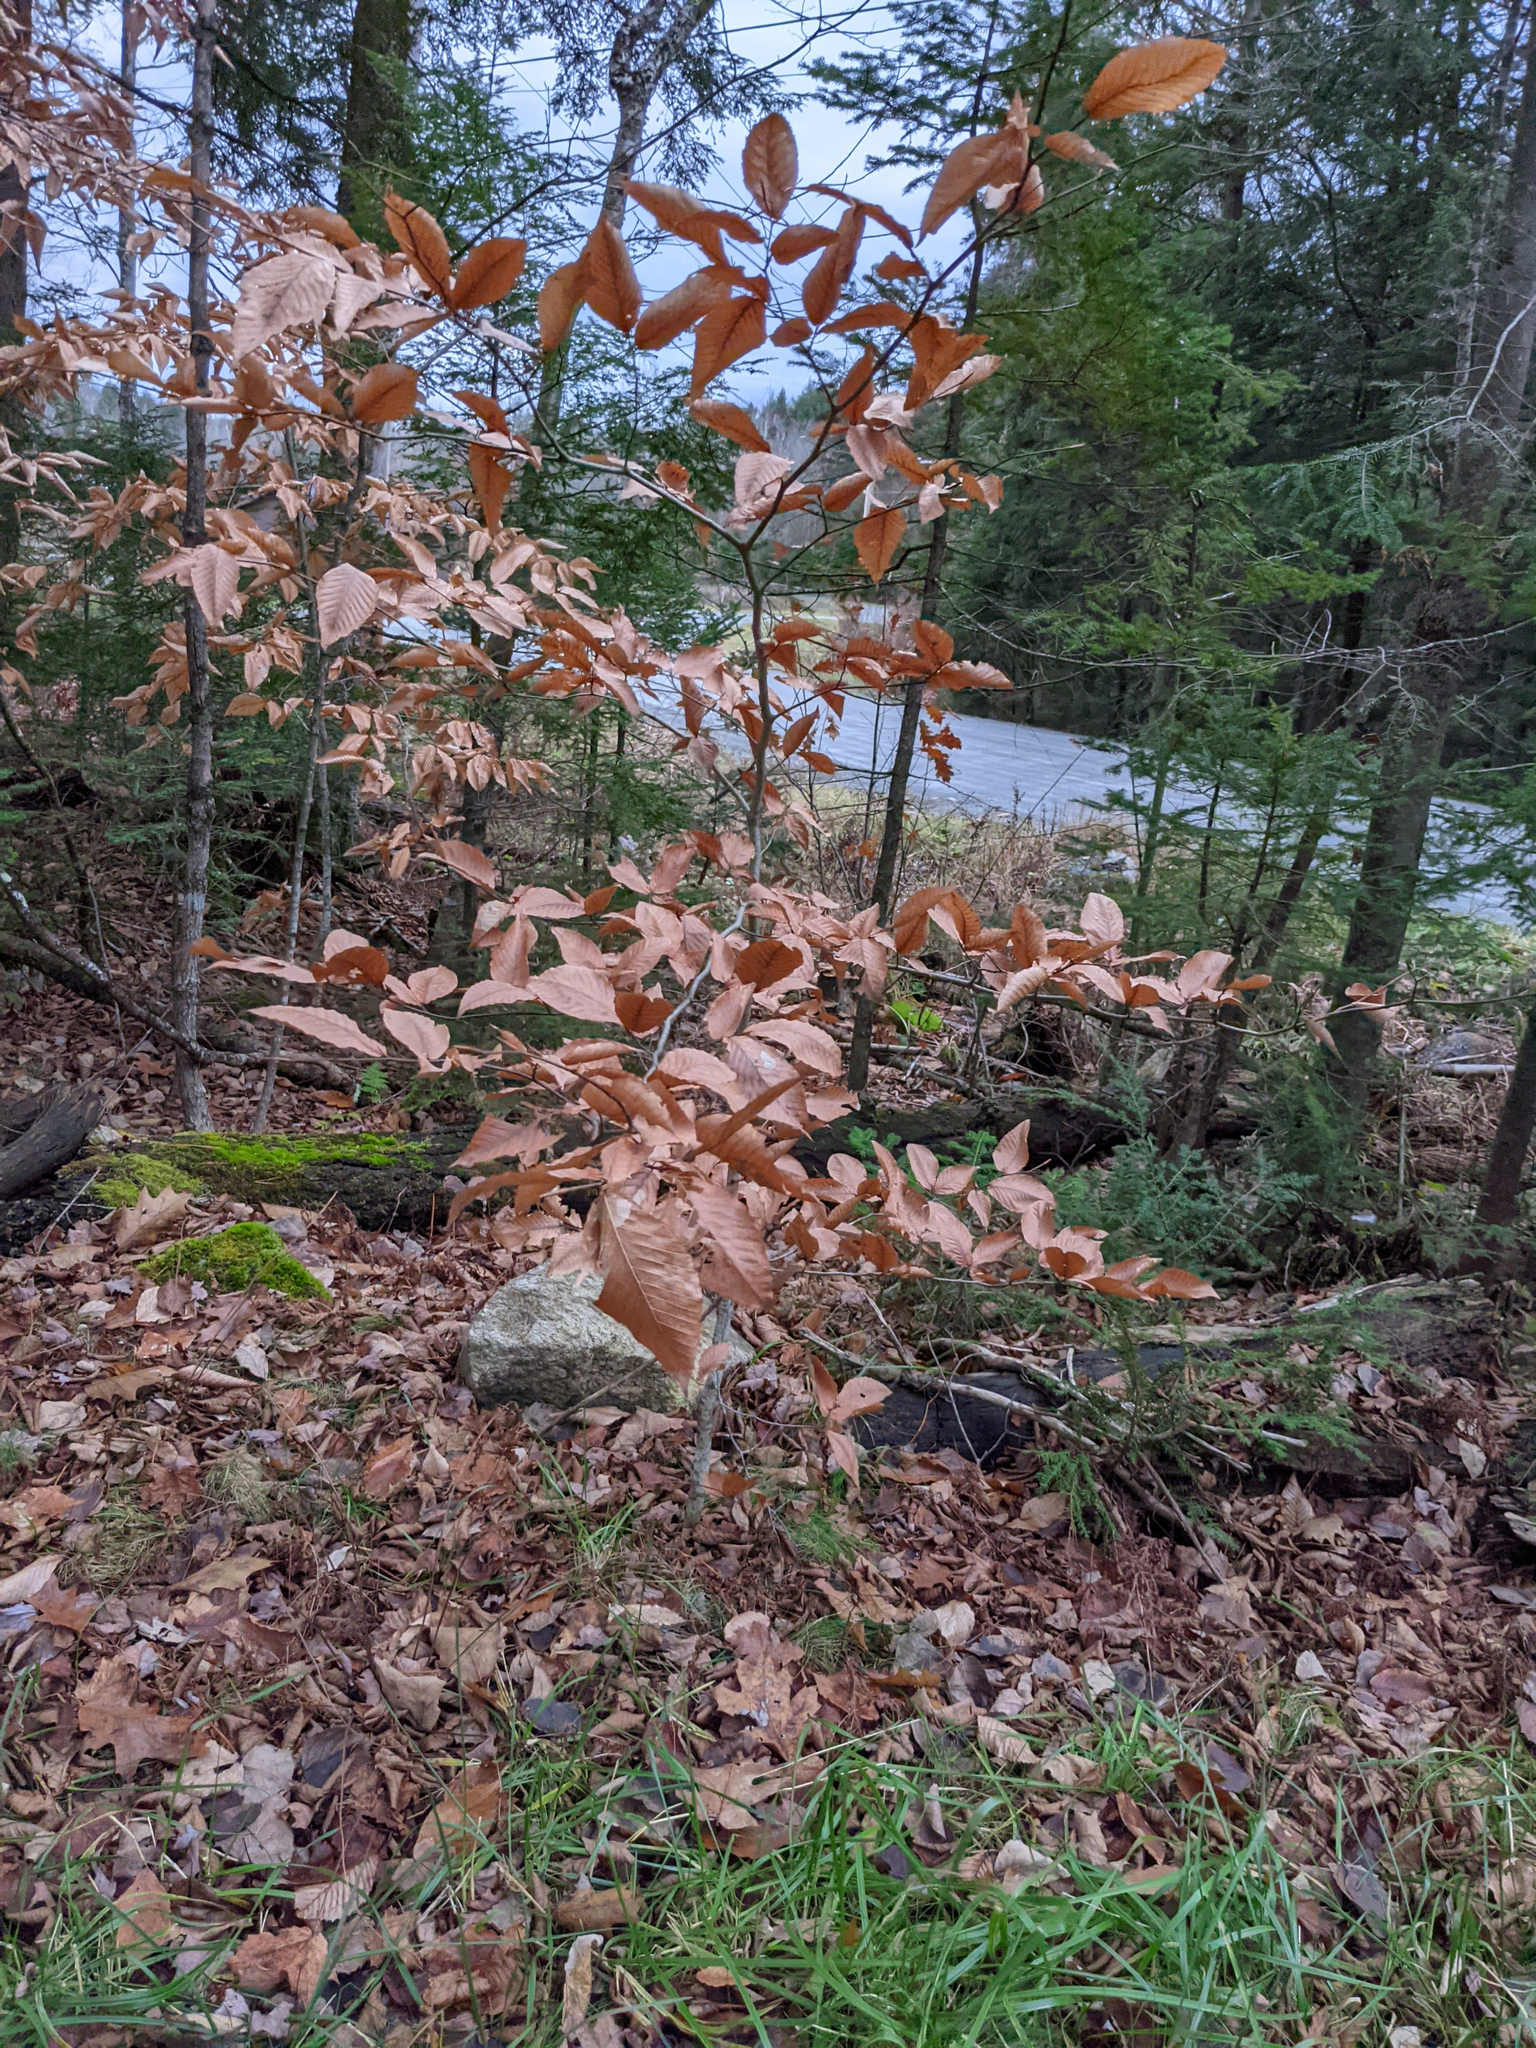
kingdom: Plantae
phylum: Tracheophyta
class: Magnoliopsida
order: Fagales
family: Fagaceae
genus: Fagus
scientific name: Fagus grandifolia
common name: American beech
